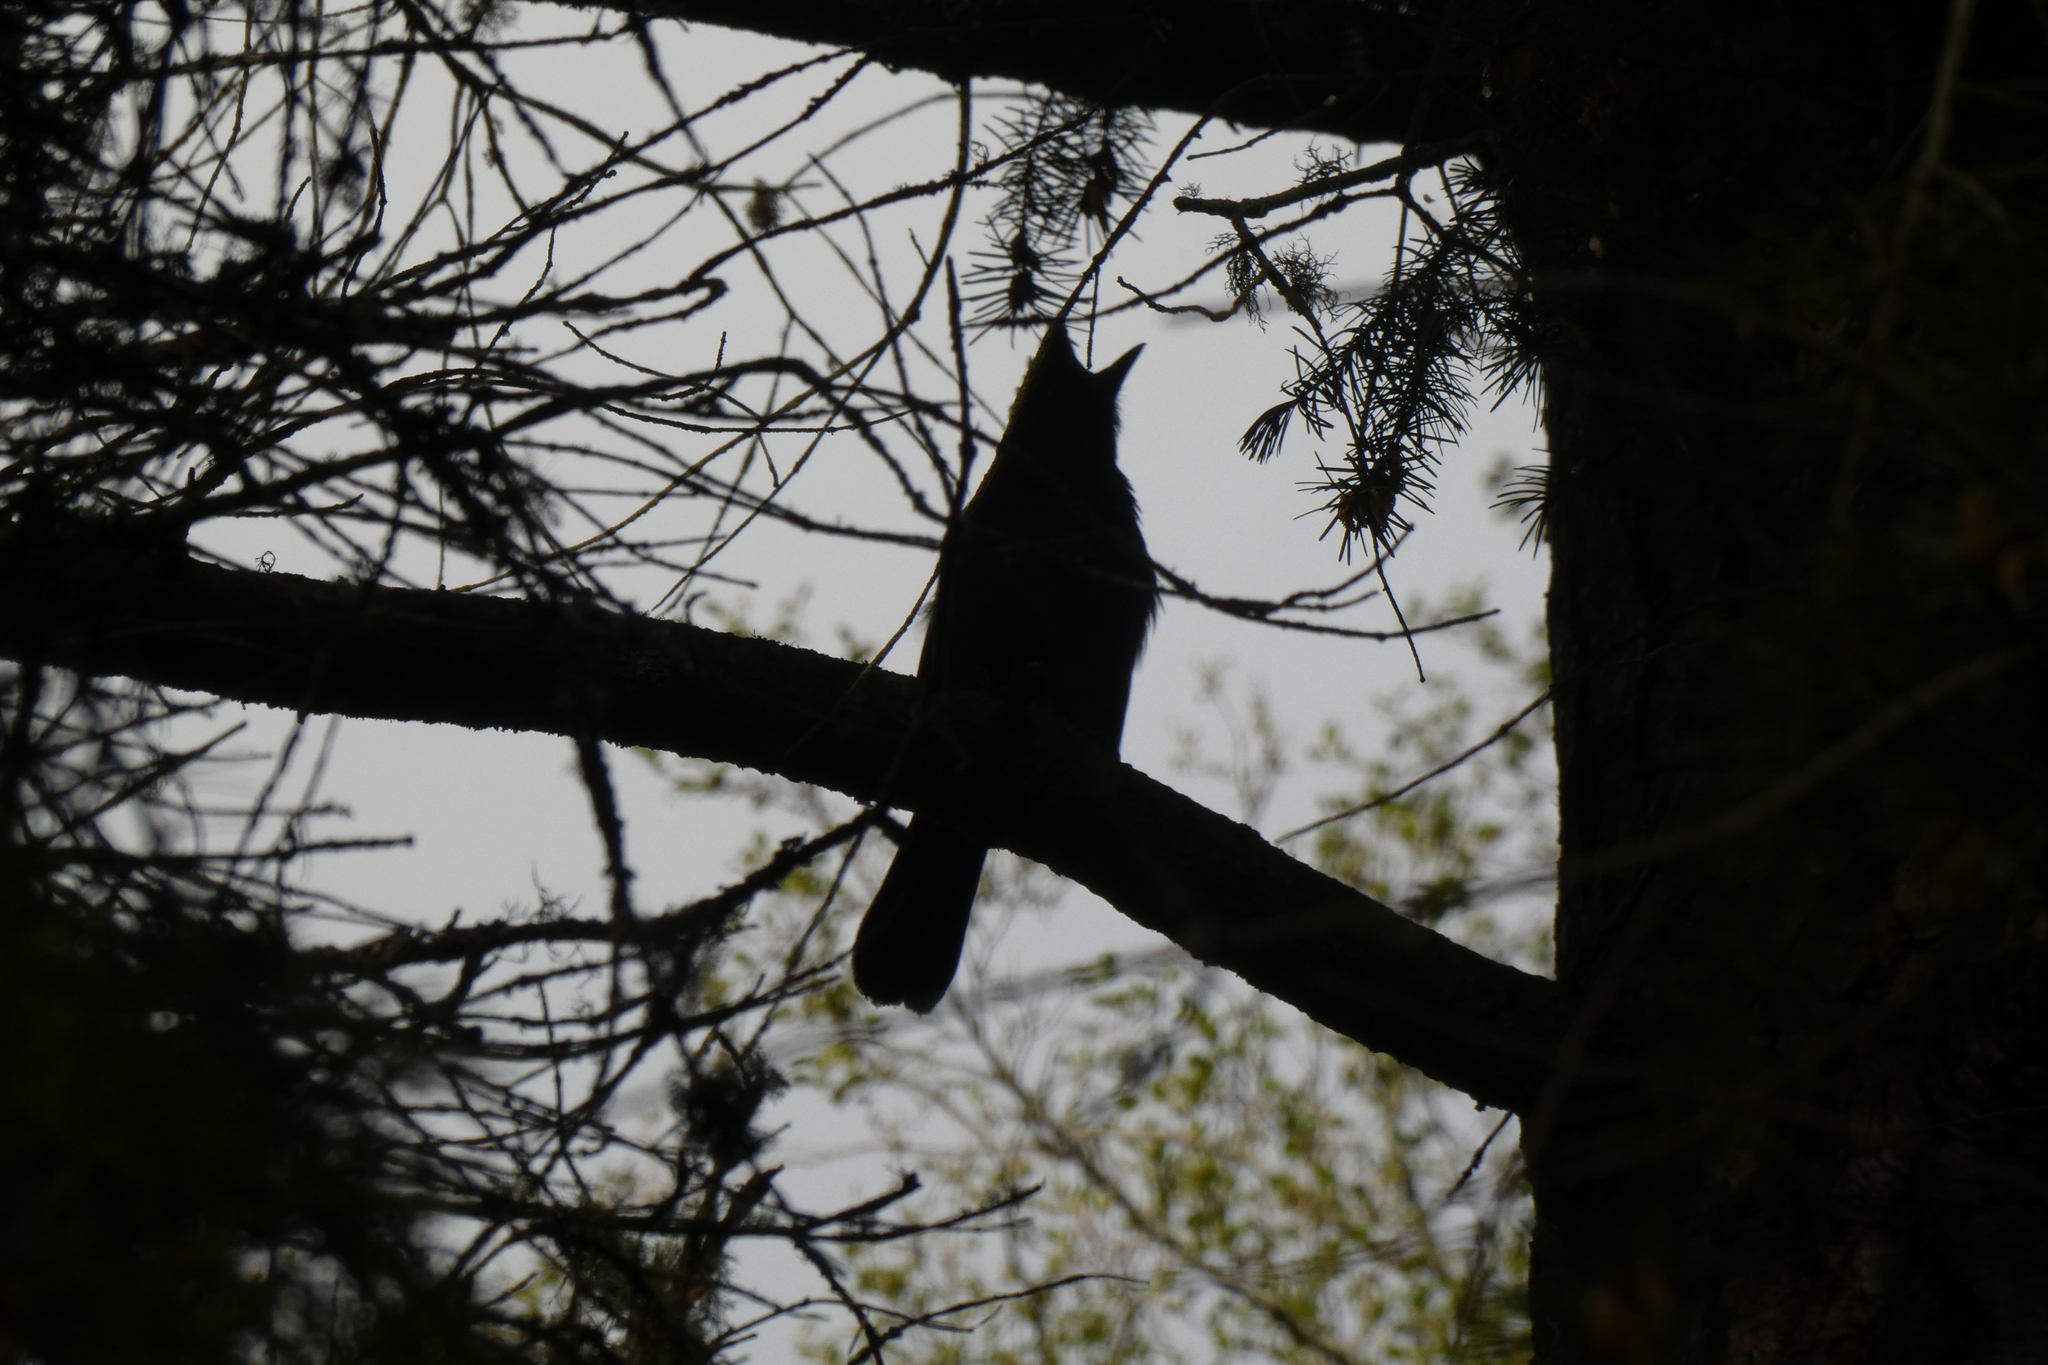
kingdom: Animalia
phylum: Chordata
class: Aves
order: Passeriformes
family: Corvidae
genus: Cyanocitta
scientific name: Cyanocitta stelleri
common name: Steller's jay
